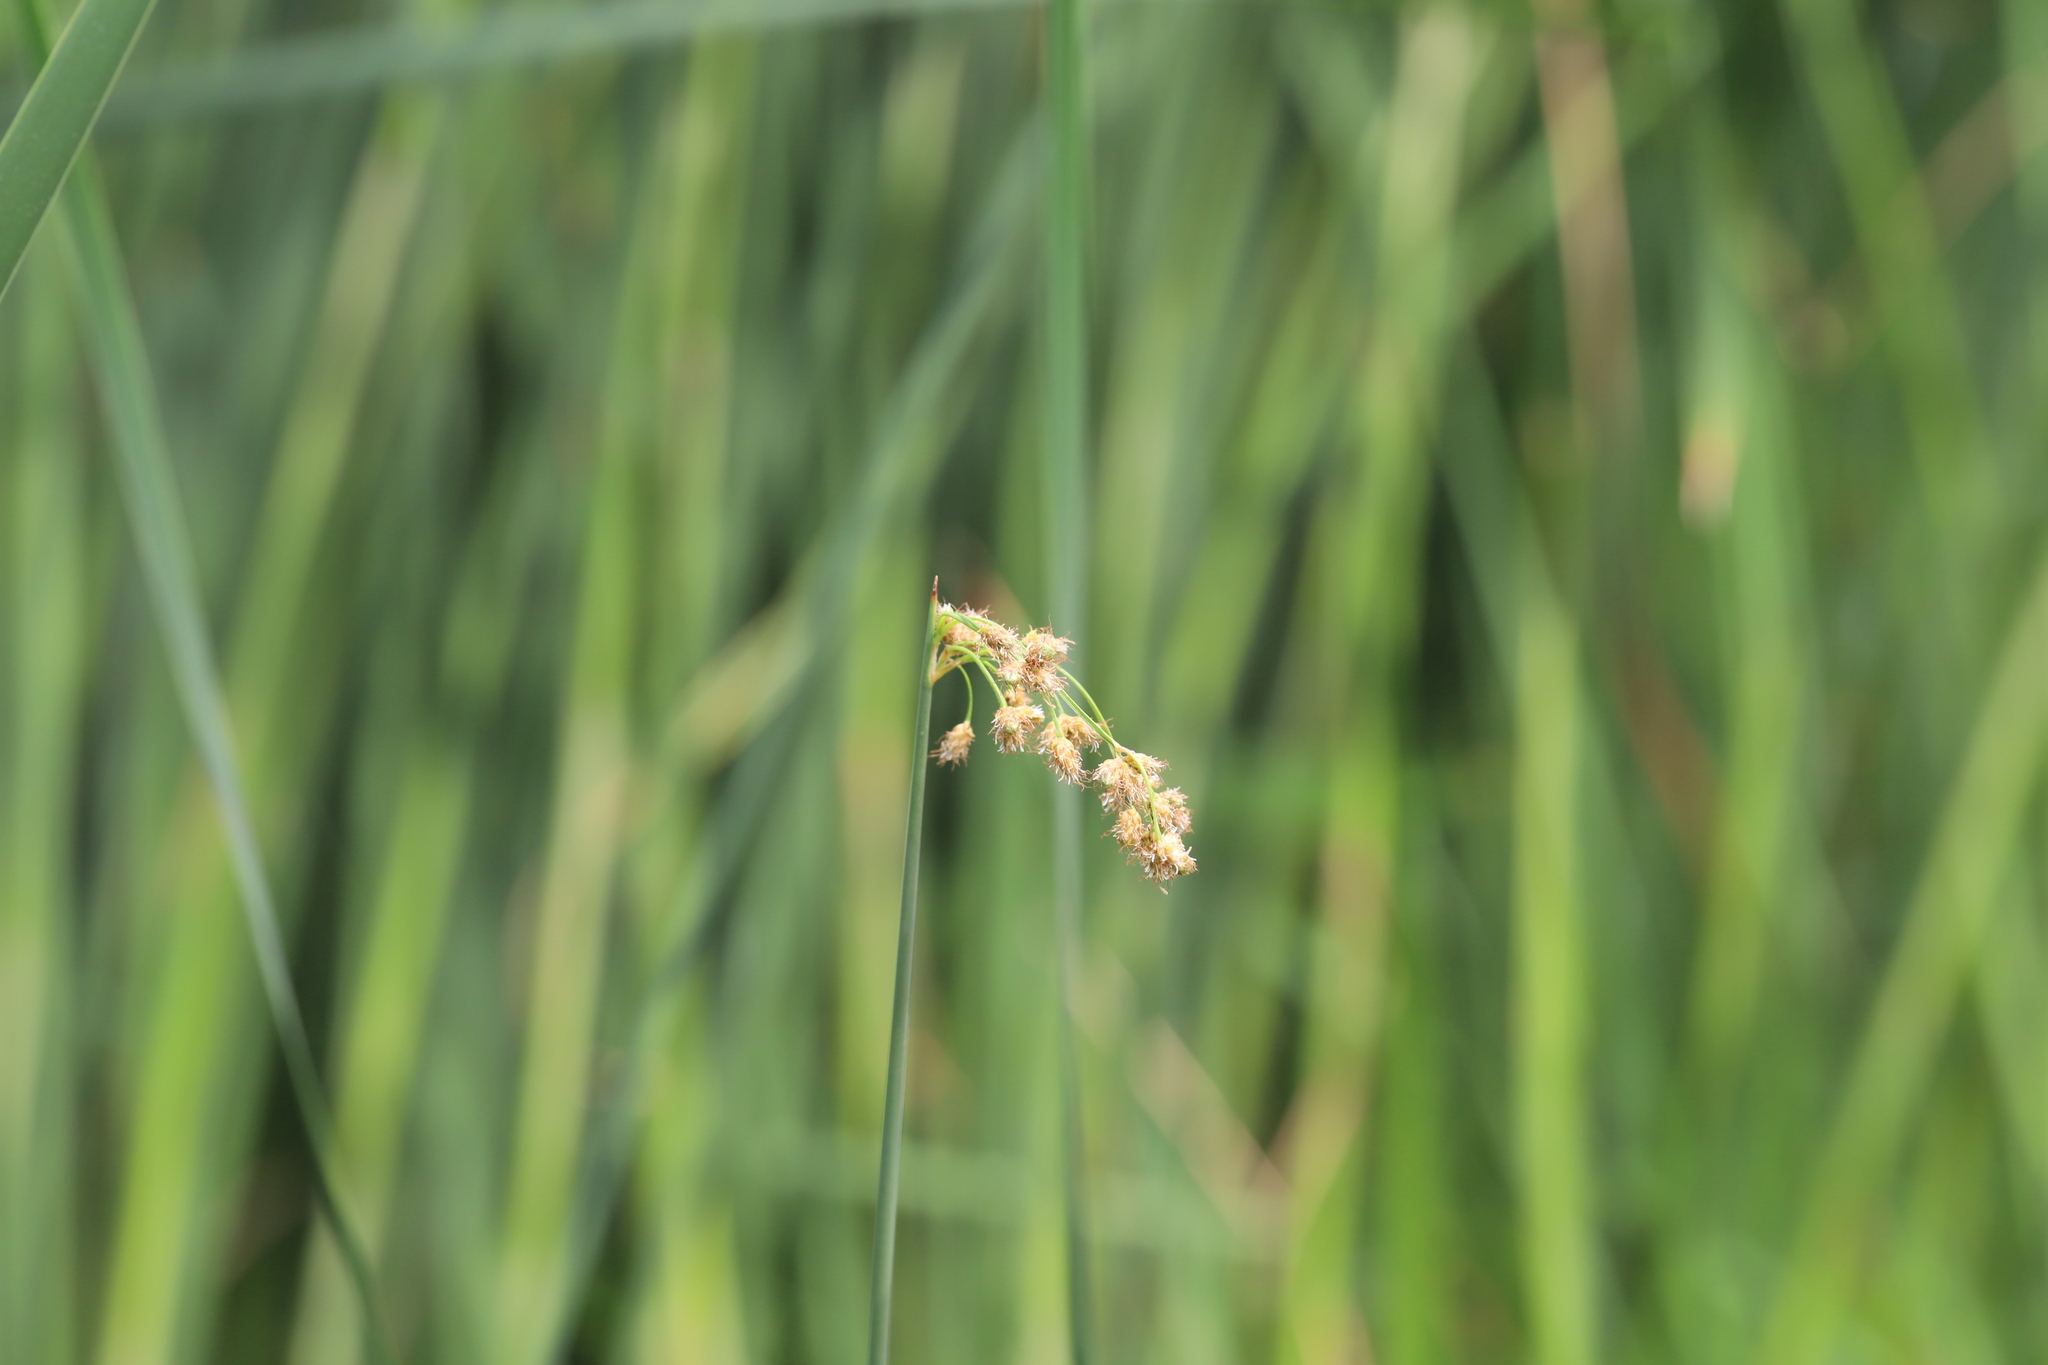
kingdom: Plantae
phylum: Tracheophyta
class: Liliopsida
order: Poales
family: Cyperaceae
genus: Schoenoplectus
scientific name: Schoenoplectus tabernaemontani
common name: Grey club-rush
